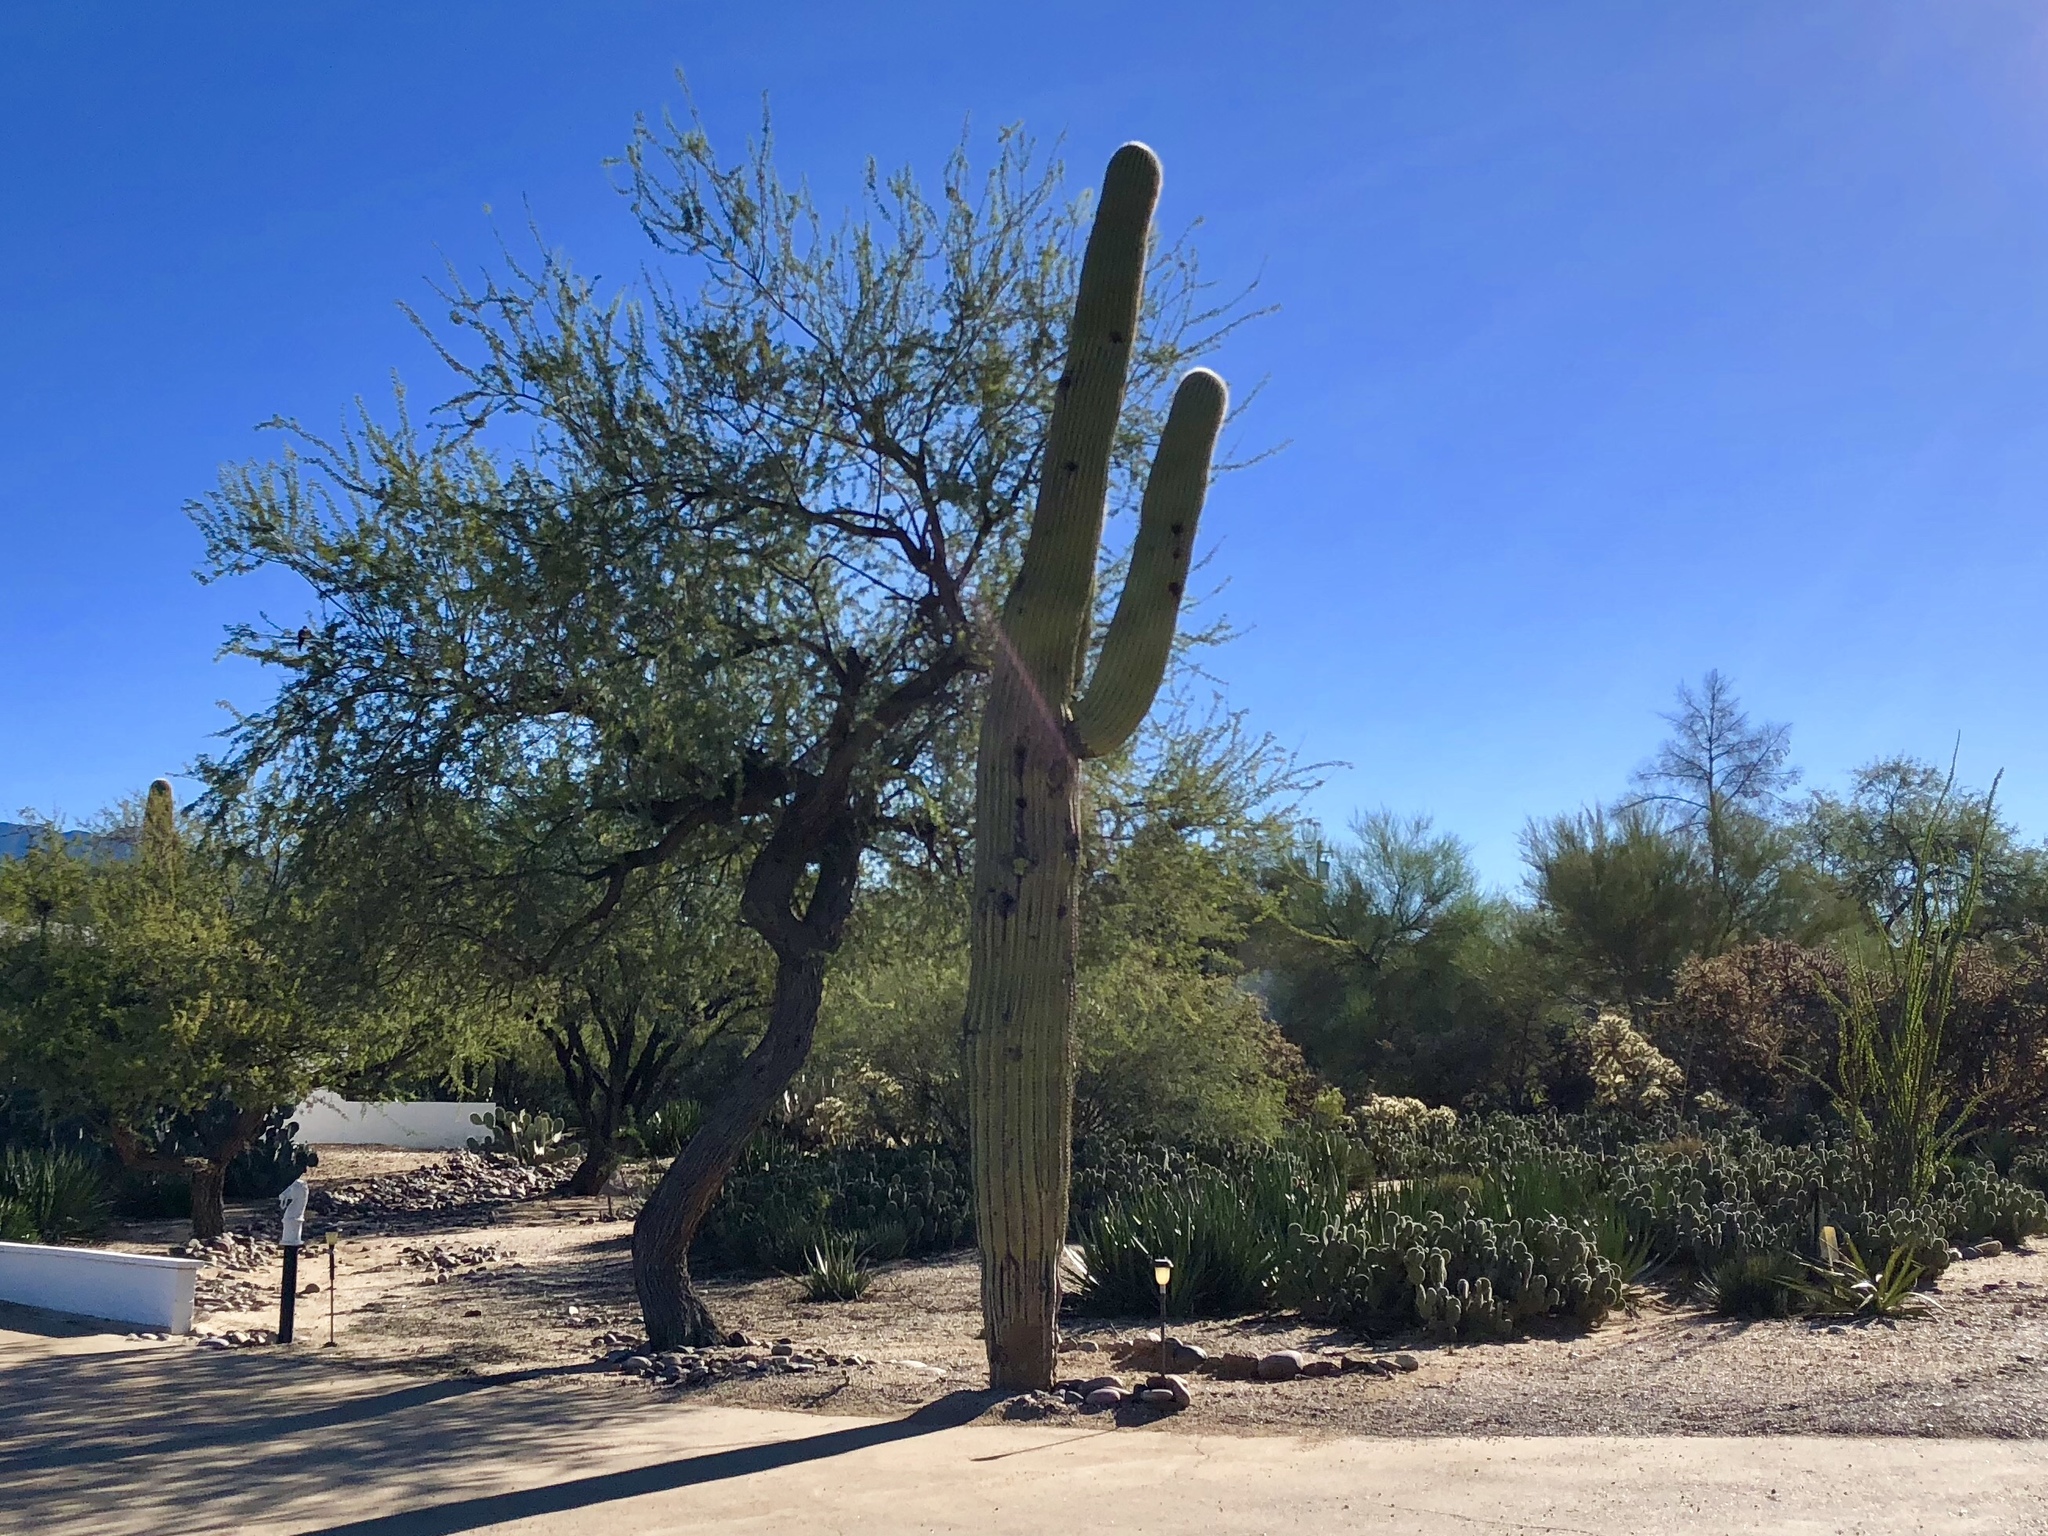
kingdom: Plantae
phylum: Tracheophyta
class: Magnoliopsida
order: Caryophyllales
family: Cactaceae
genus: Carnegiea
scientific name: Carnegiea gigantea
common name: Saguaro
